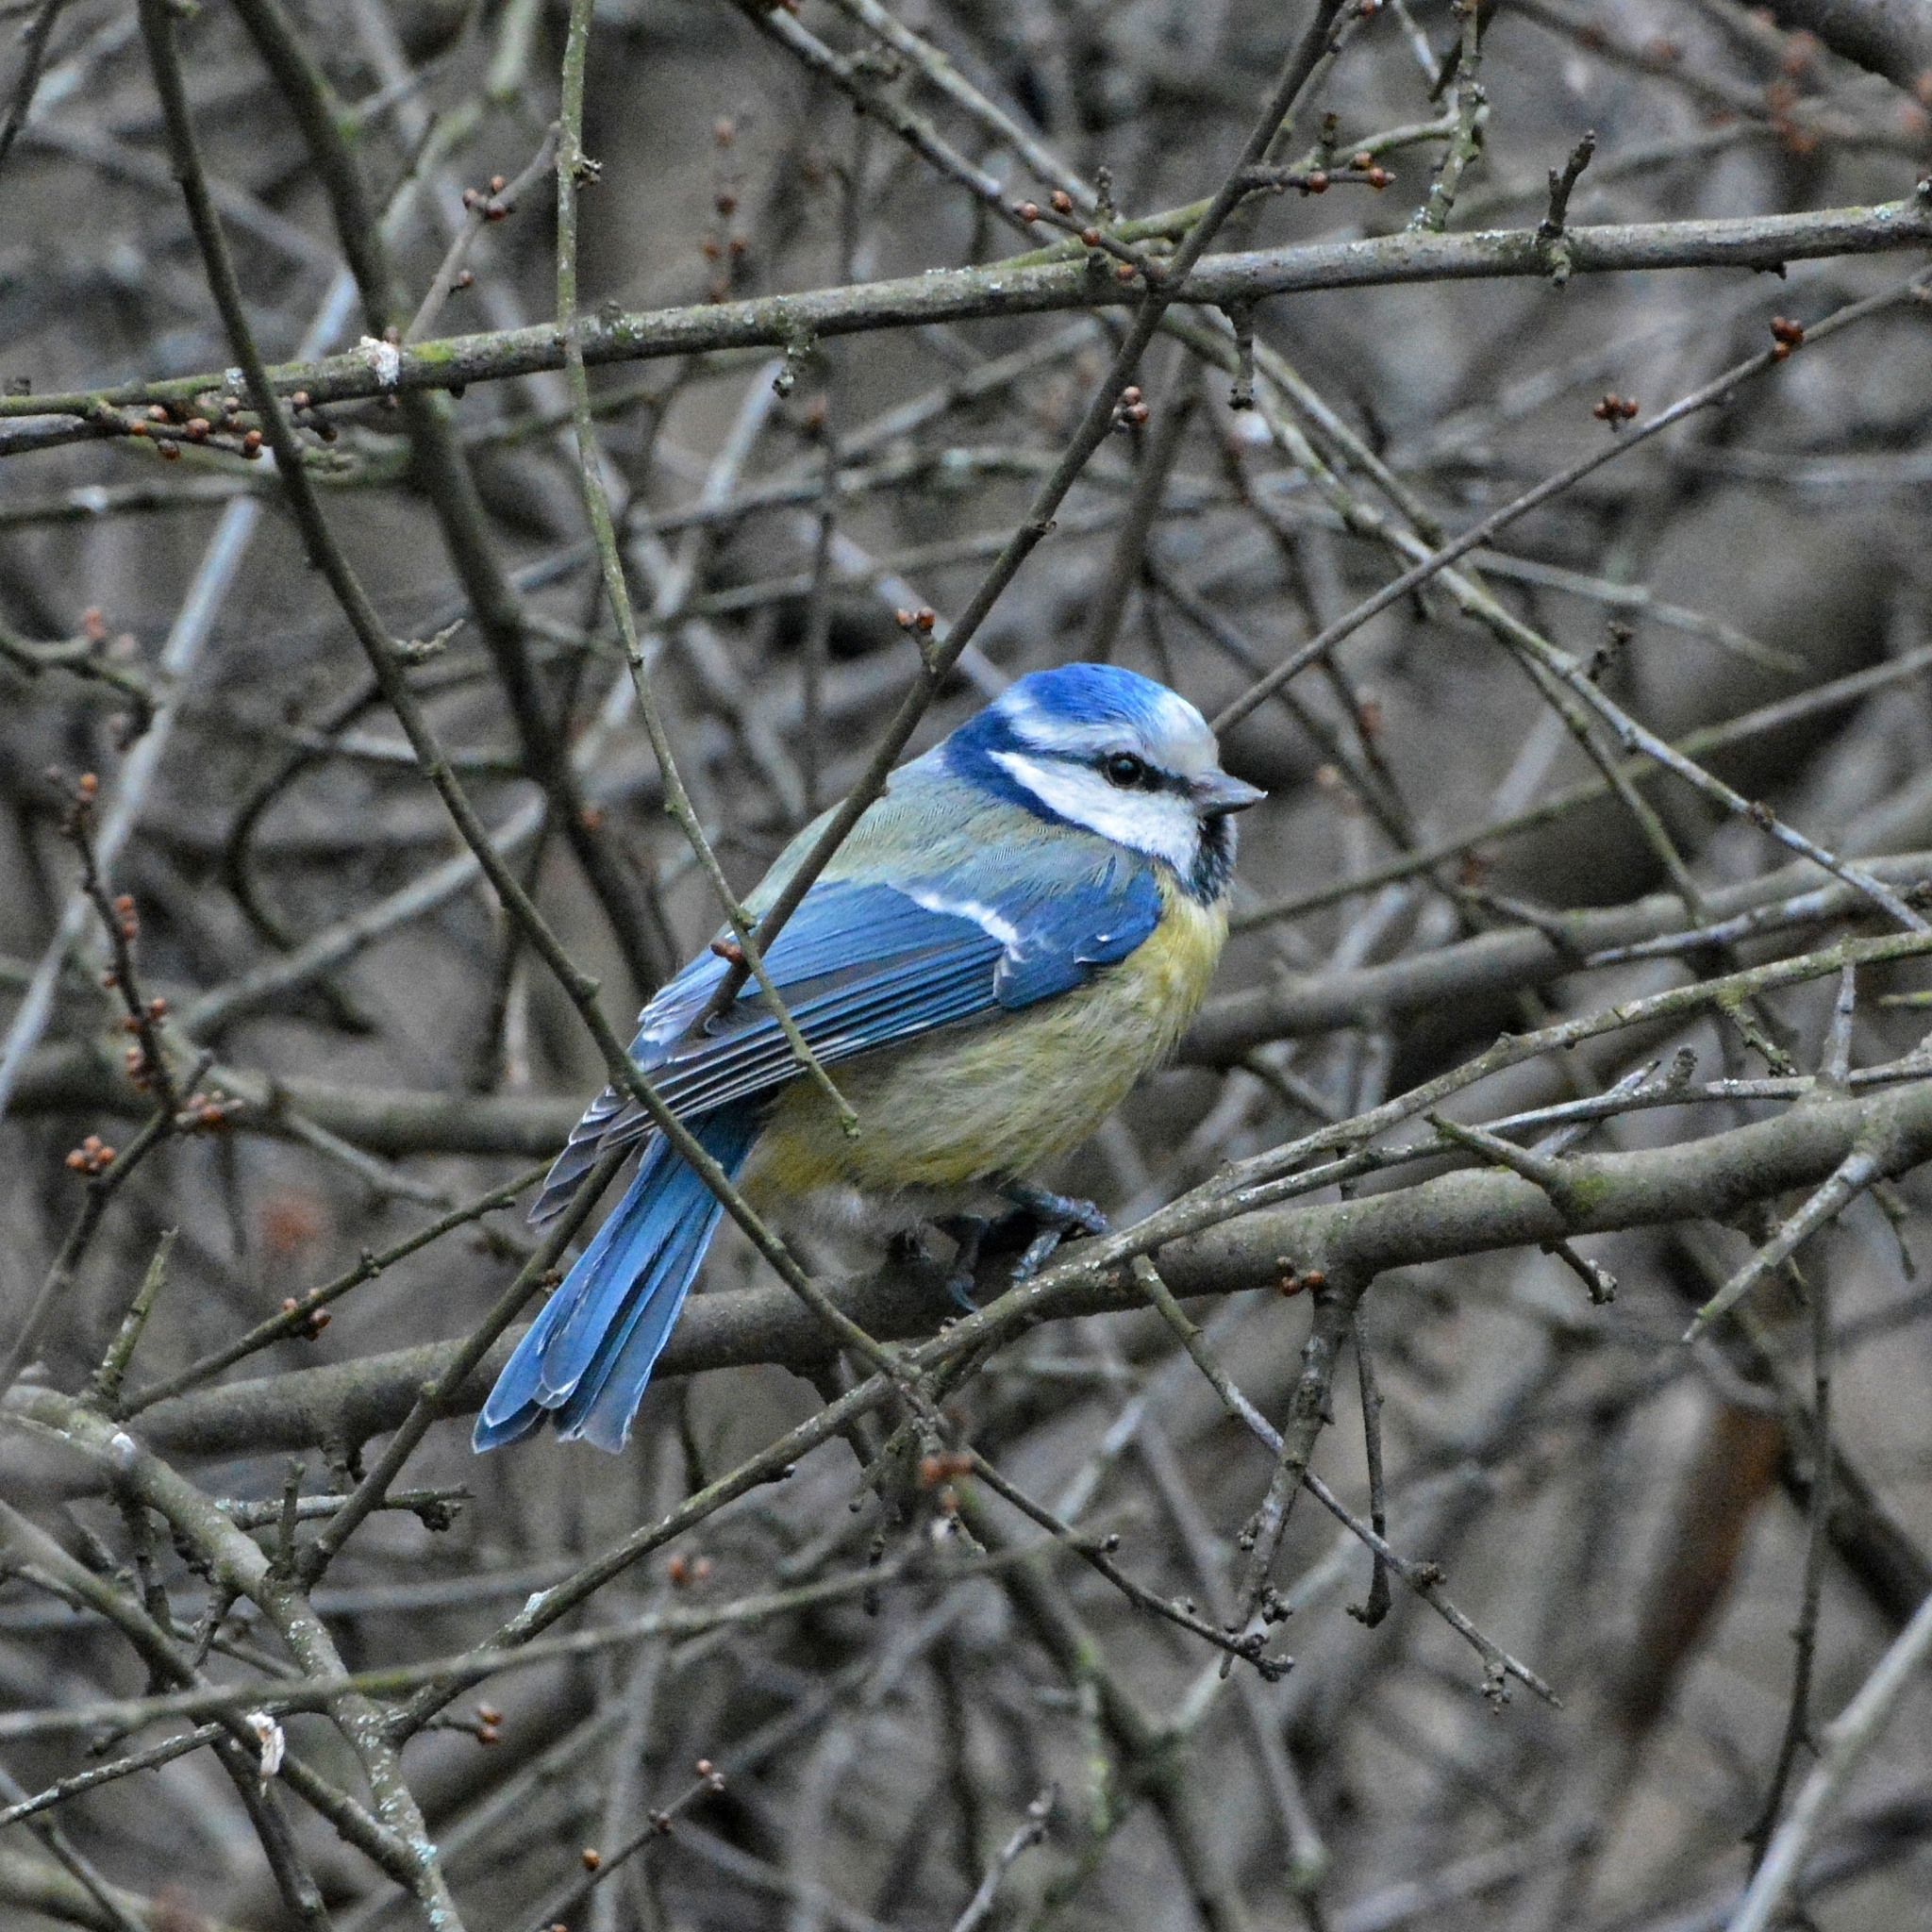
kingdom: Animalia
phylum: Chordata
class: Aves
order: Passeriformes
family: Paridae
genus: Cyanistes
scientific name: Cyanistes caeruleus
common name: Eurasian blue tit
